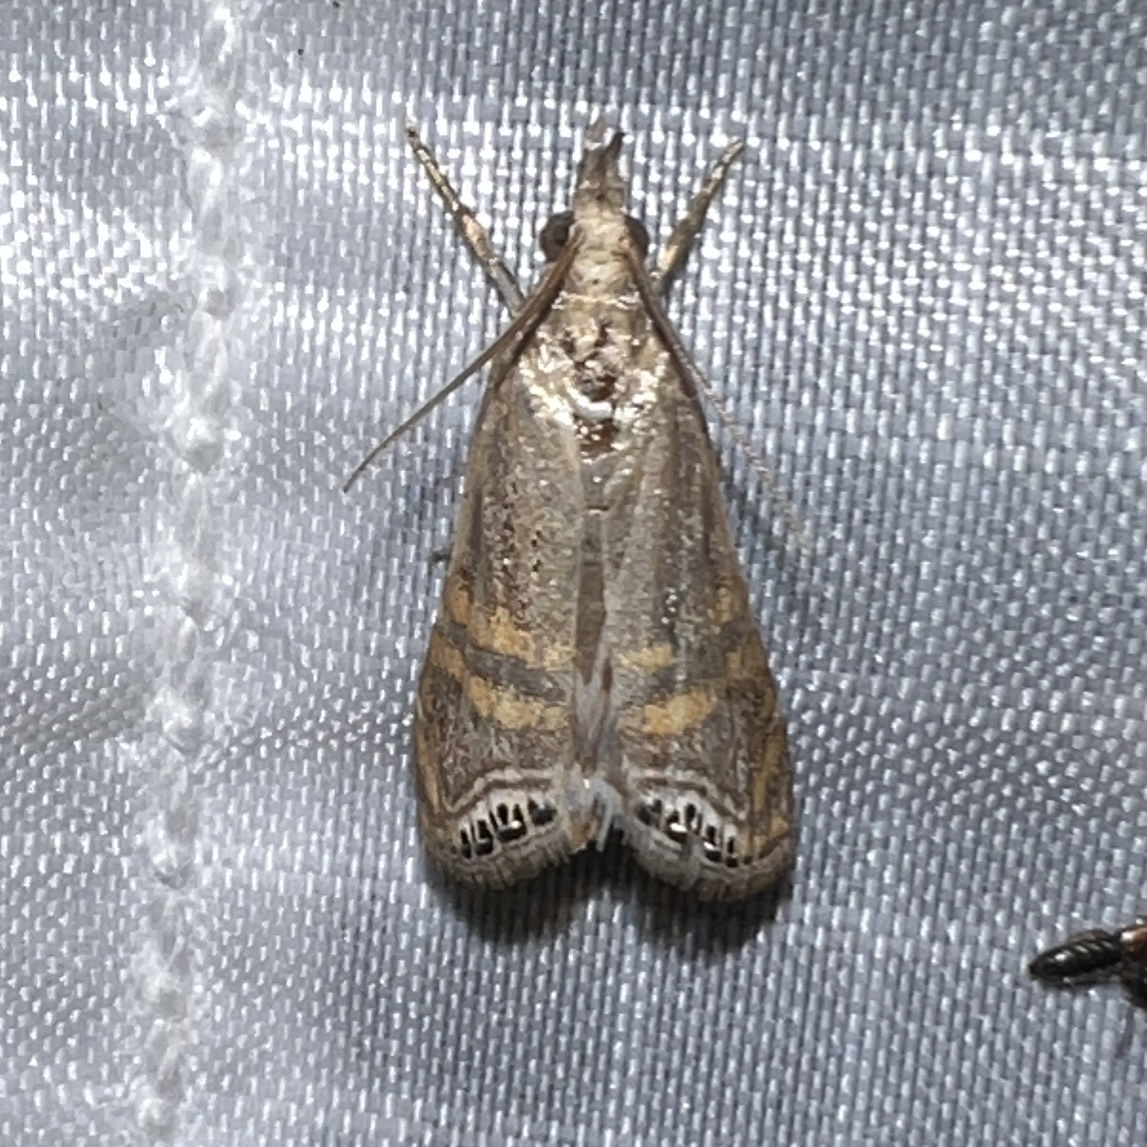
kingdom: Animalia
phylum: Arthropoda
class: Insecta
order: Lepidoptera
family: Crambidae
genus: Euchromius
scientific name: Euchromius ocellea
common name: Necklace veneer moth
